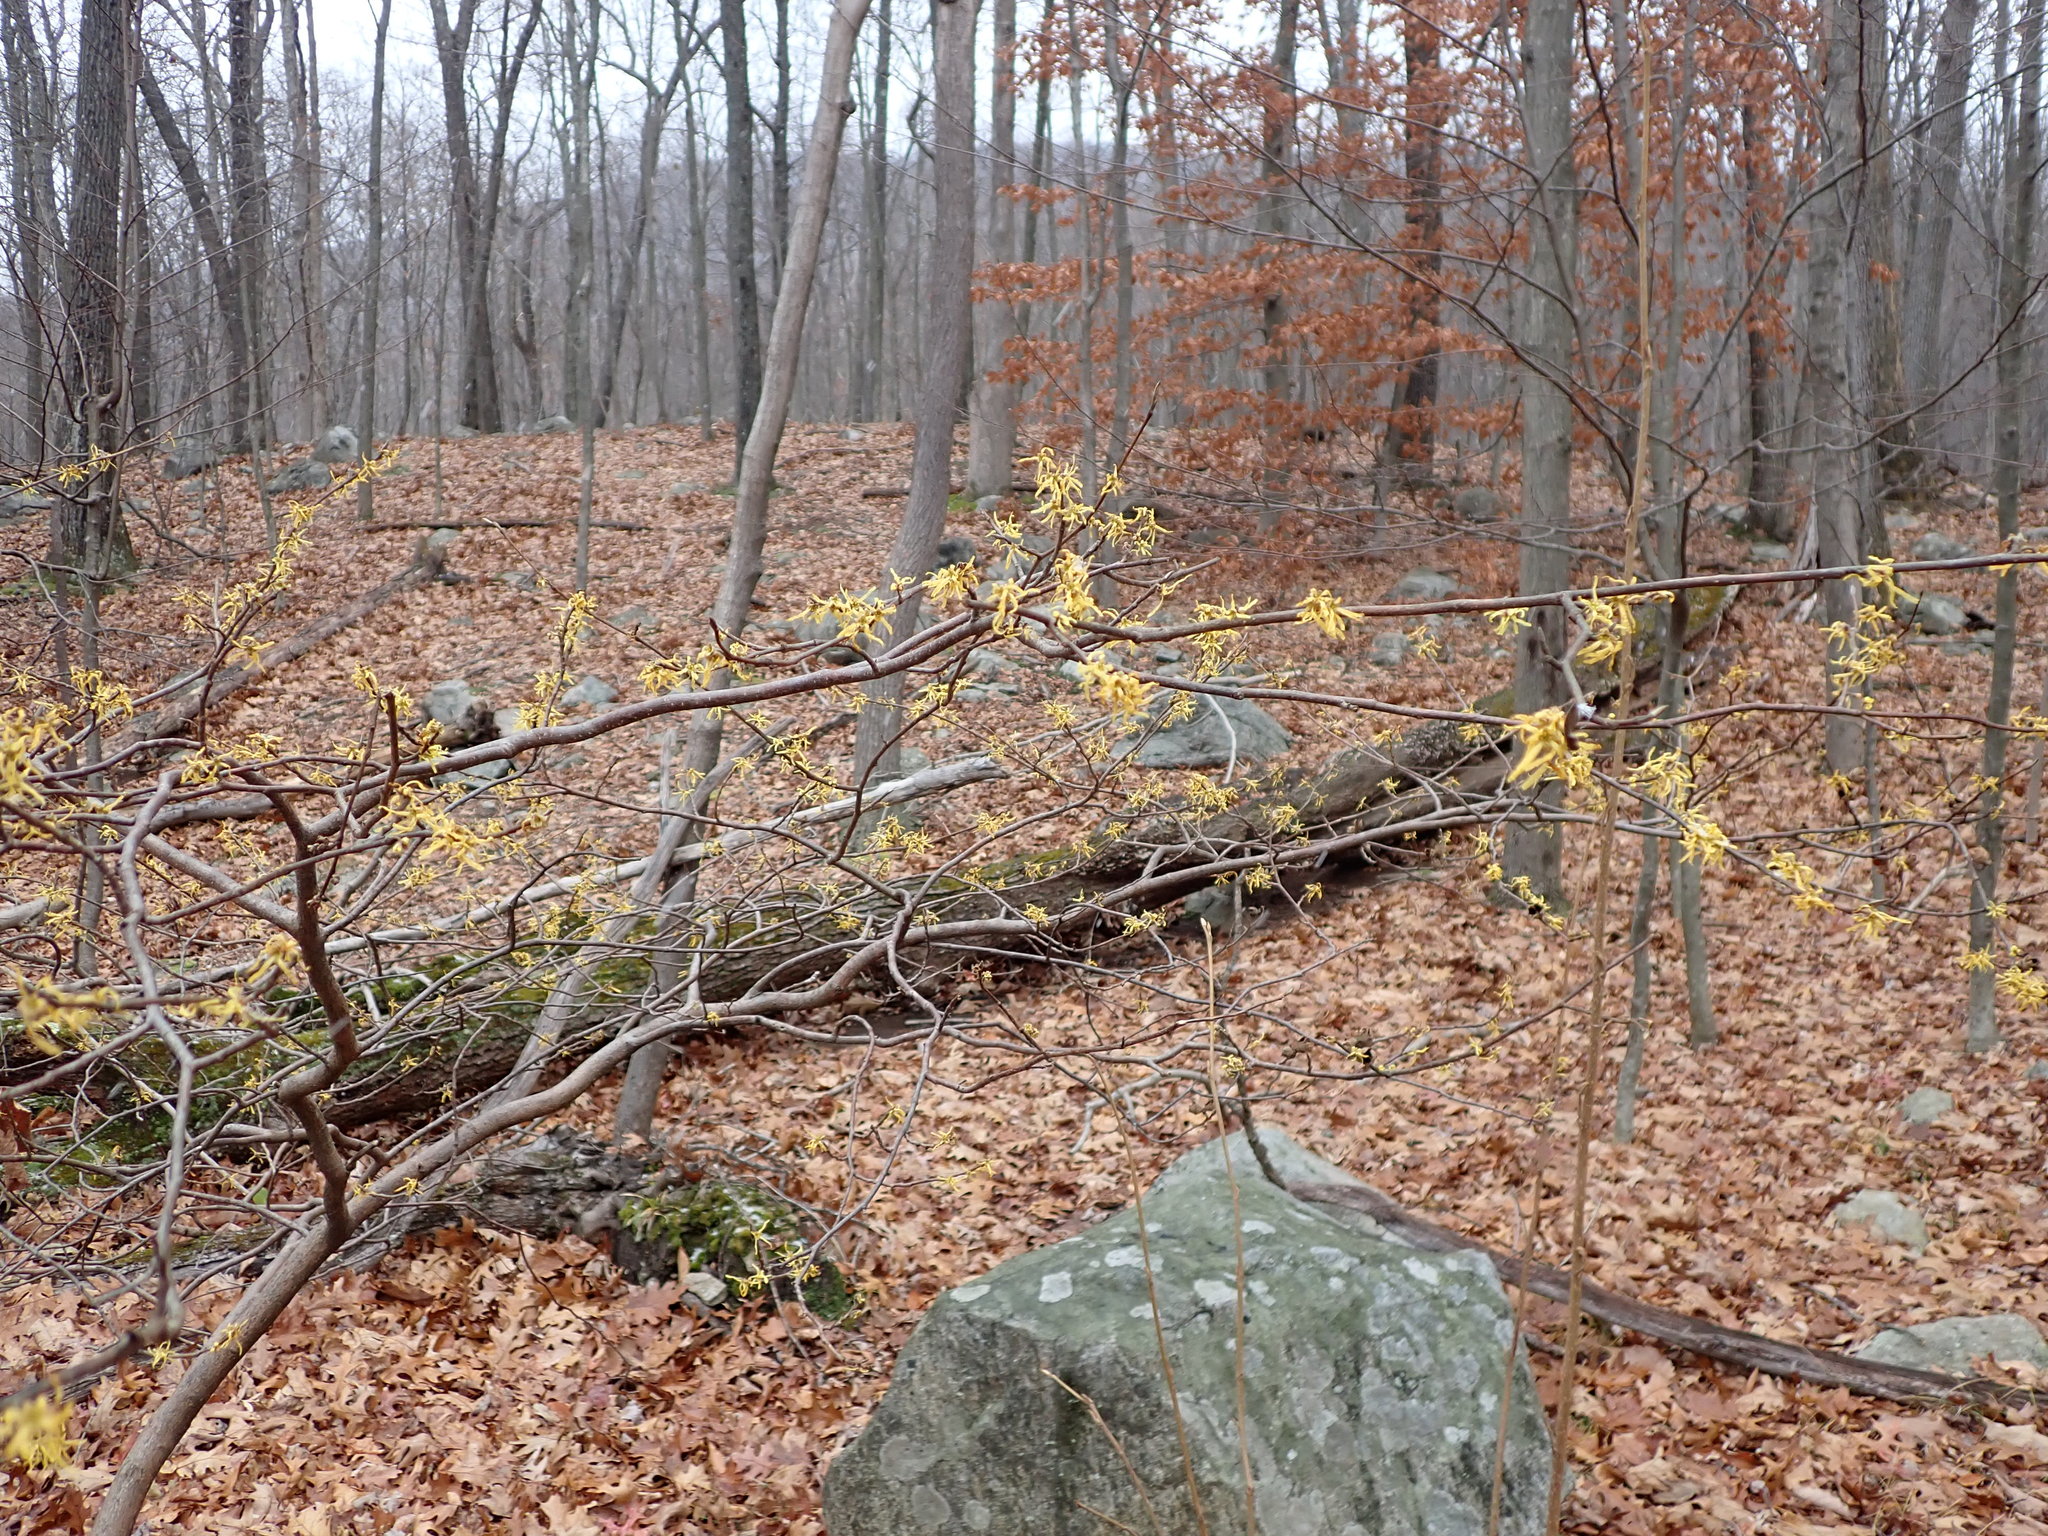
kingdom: Plantae
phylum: Tracheophyta
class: Magnoliopsida
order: Saxifragales
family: Hamamelidaceae
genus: Hamamelis
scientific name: Hamamelis virginiana
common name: Witch-hazel
